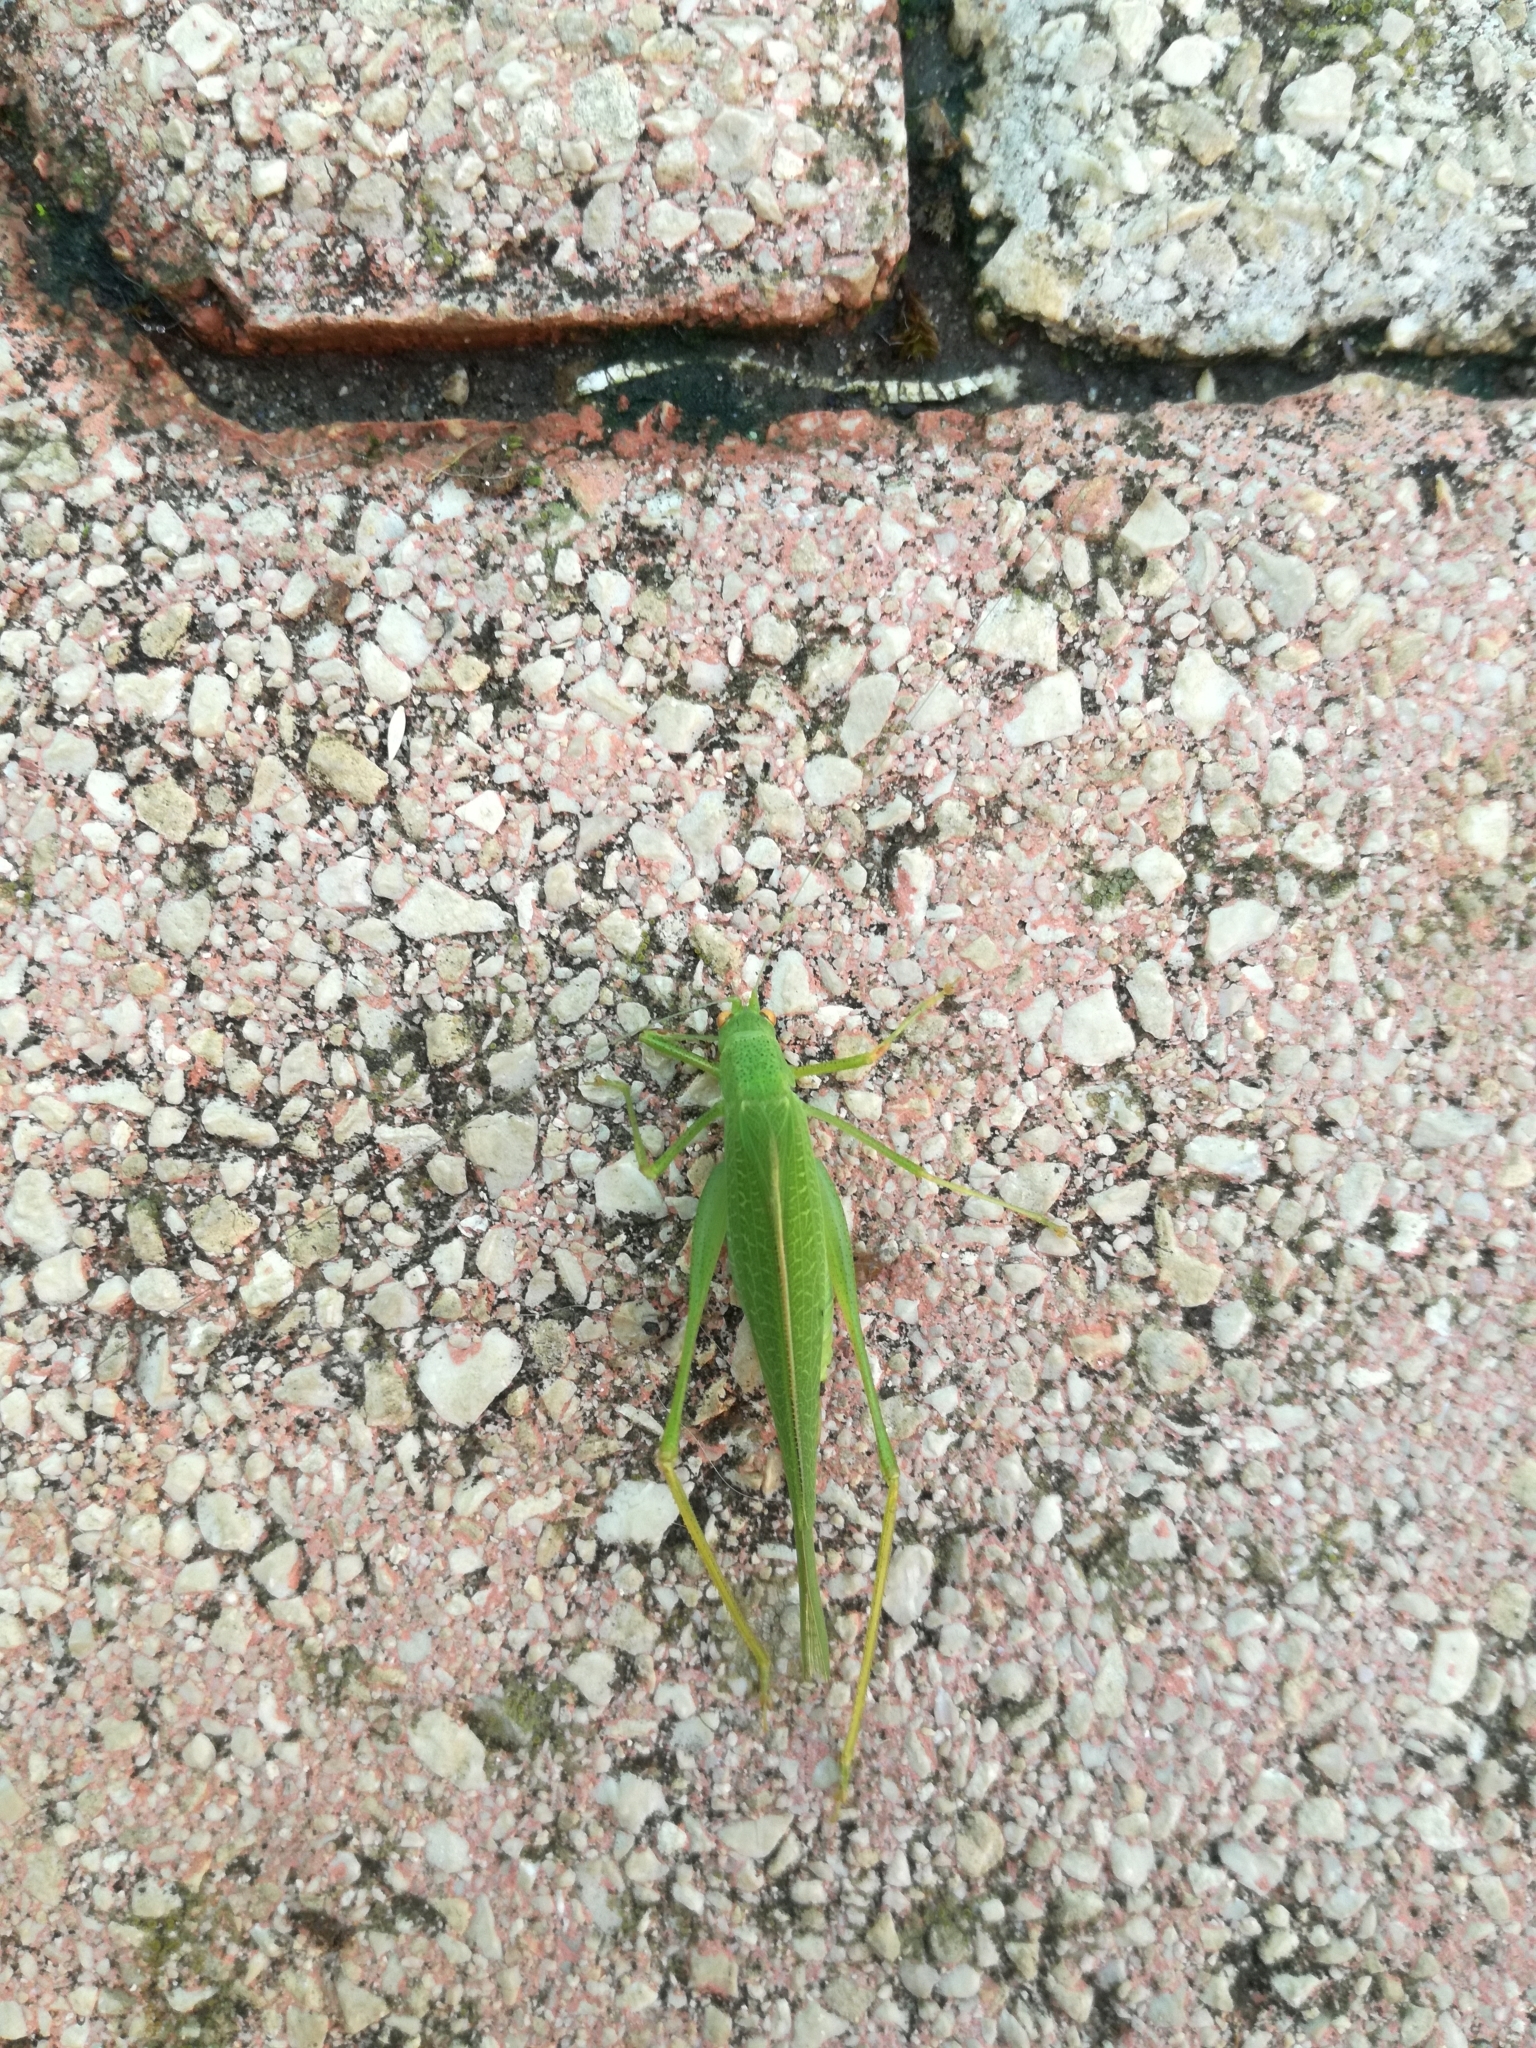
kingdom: Animalia
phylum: Arthropoda
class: Insecta
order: Orthoptera
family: Tettigoniidae
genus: Phaneroptera
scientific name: Phaneroptera nana
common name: Southern sickle bush-cricket
